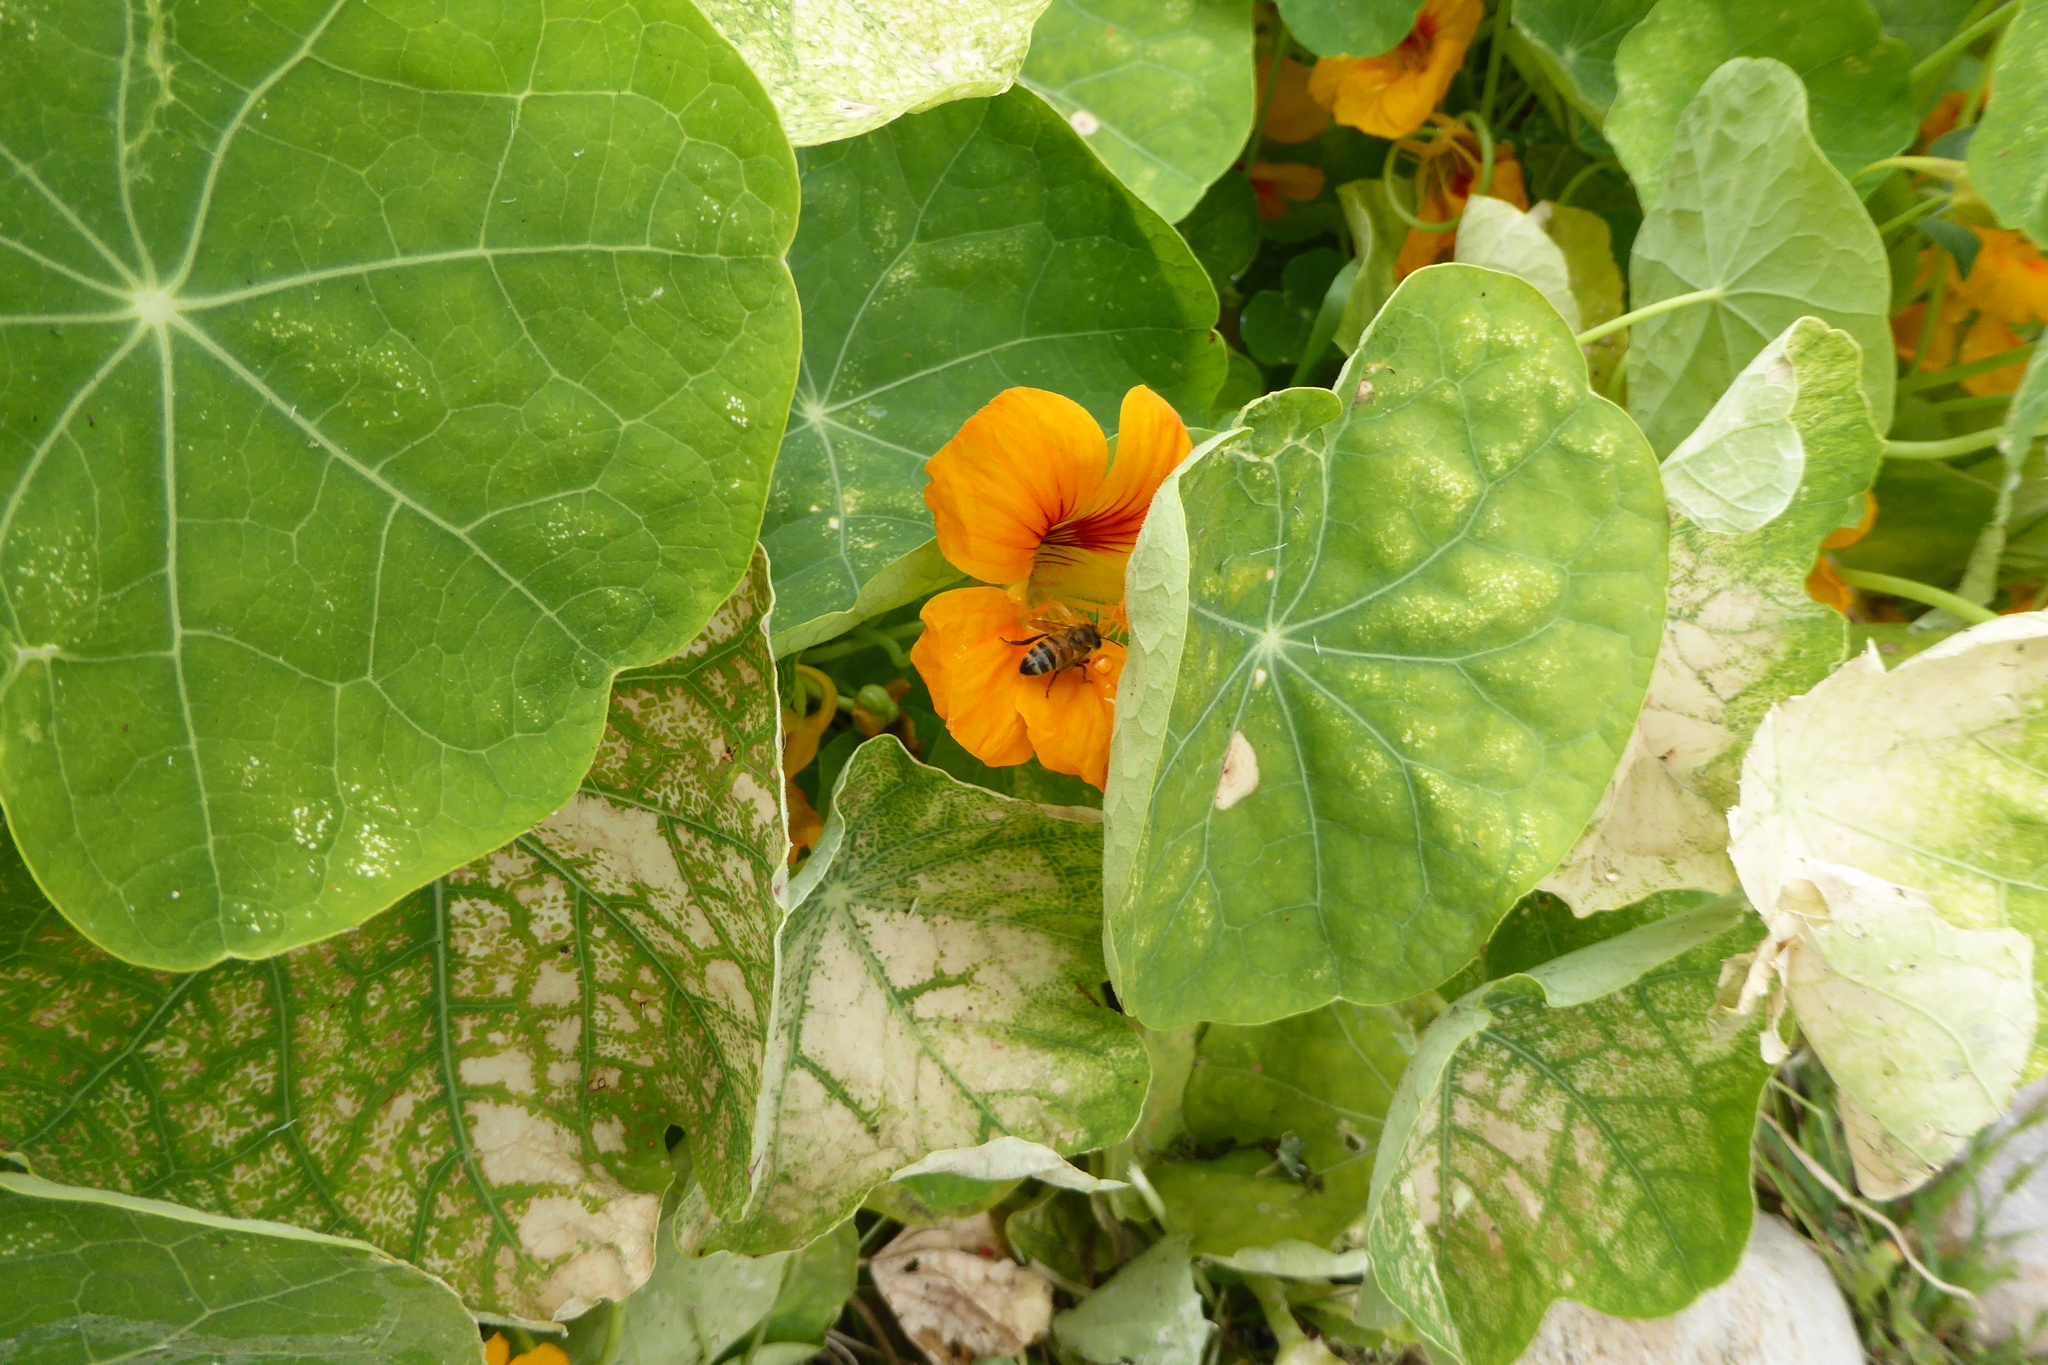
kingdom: Animalia
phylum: Arthropoda
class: Insecta
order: Hymenoptera
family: Apidae
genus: Apis
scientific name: Apis mellifera
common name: Honey bee
